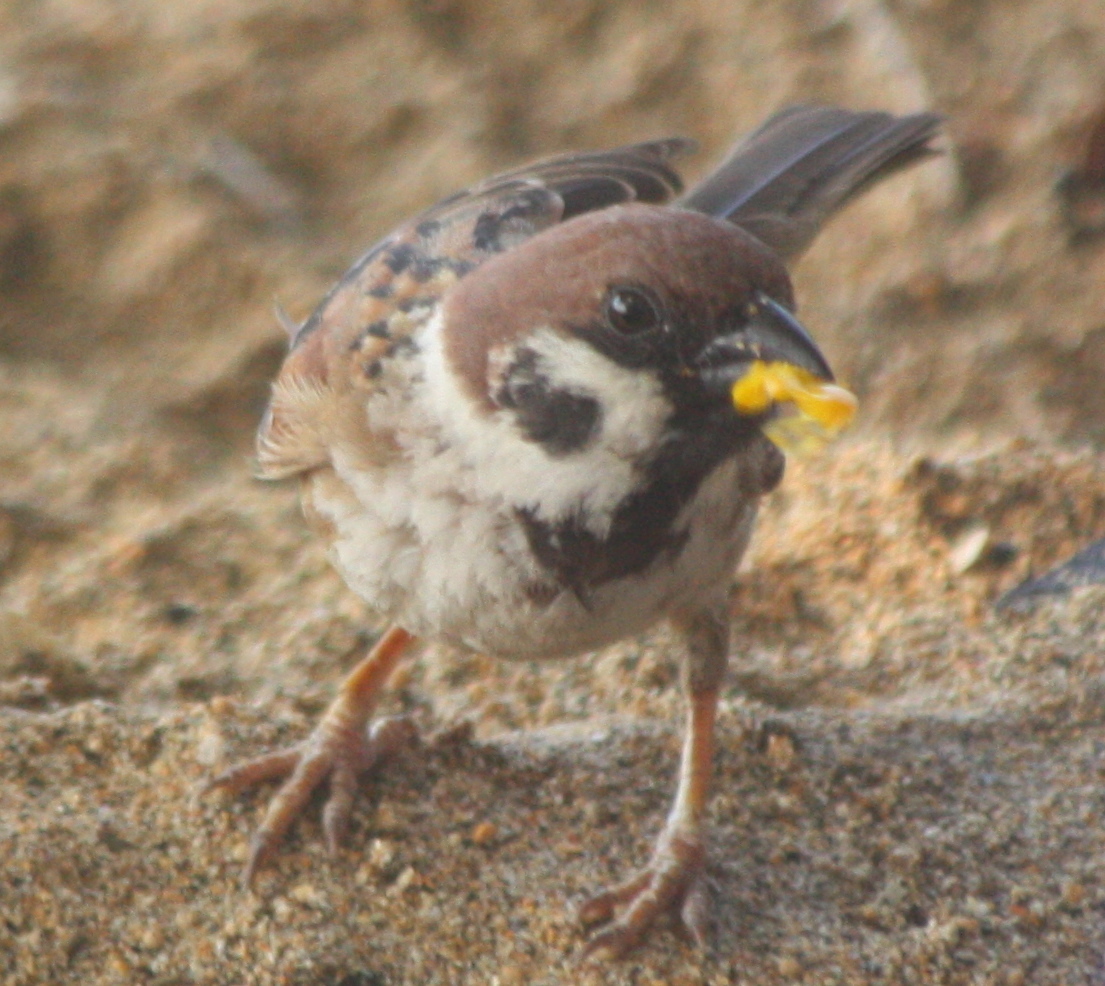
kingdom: Animalia
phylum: Chordata
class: Aves
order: Passeriformes
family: Passeridae
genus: Passer
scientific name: Passer montanus
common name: Eurasian tree sparrow
